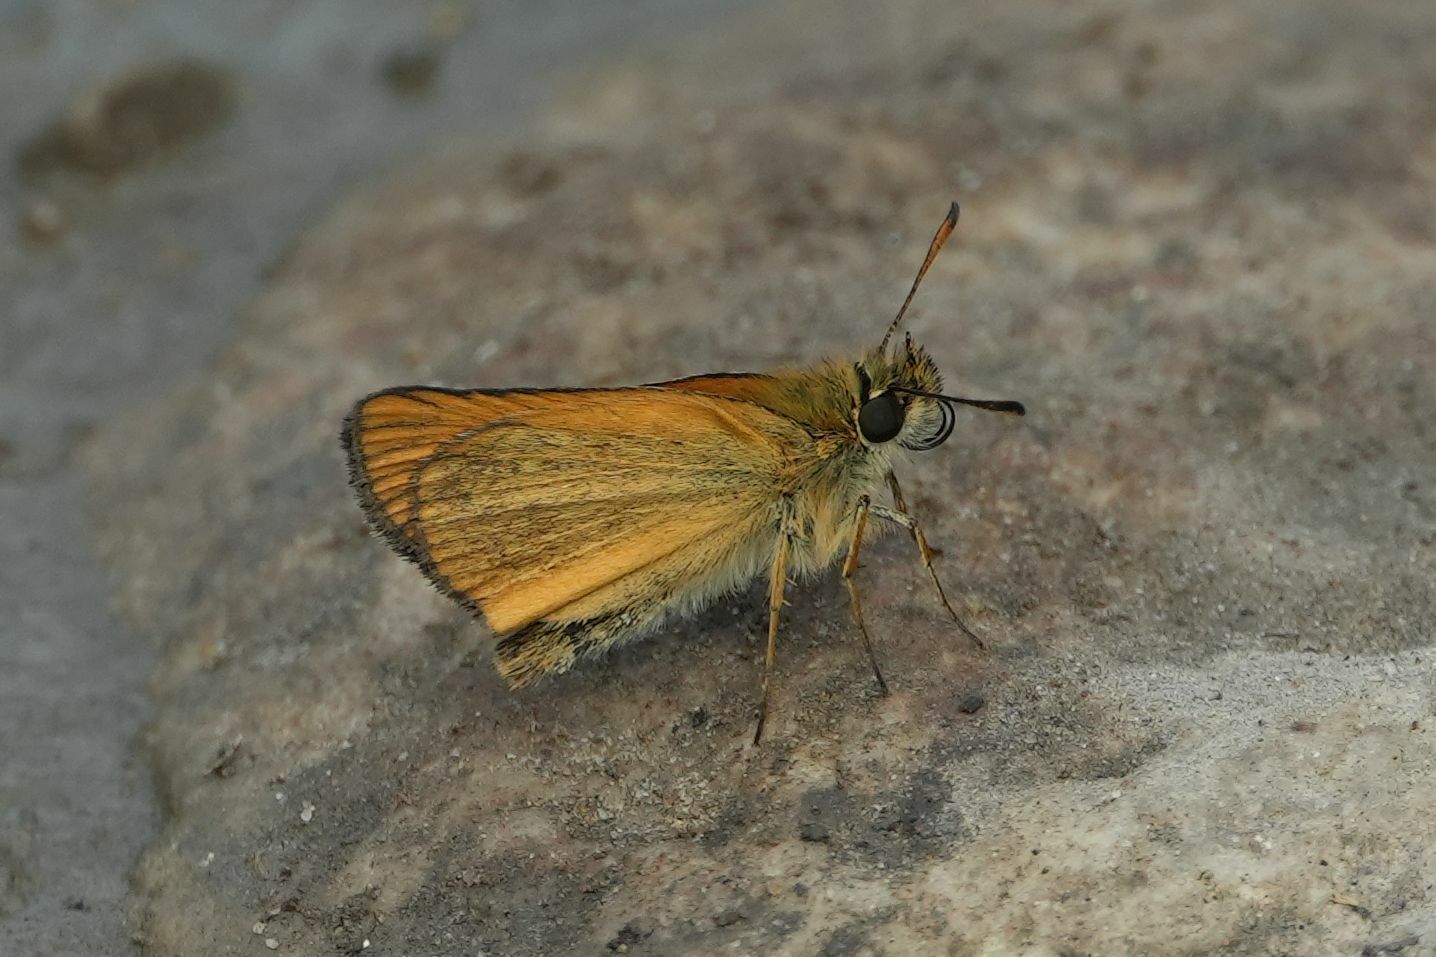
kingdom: Animalia
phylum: Arthropoda
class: Insecta
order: Lepidoptera
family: Hesperiidae
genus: Thymelicus
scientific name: Thymelicus lineola
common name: Essex skipper
